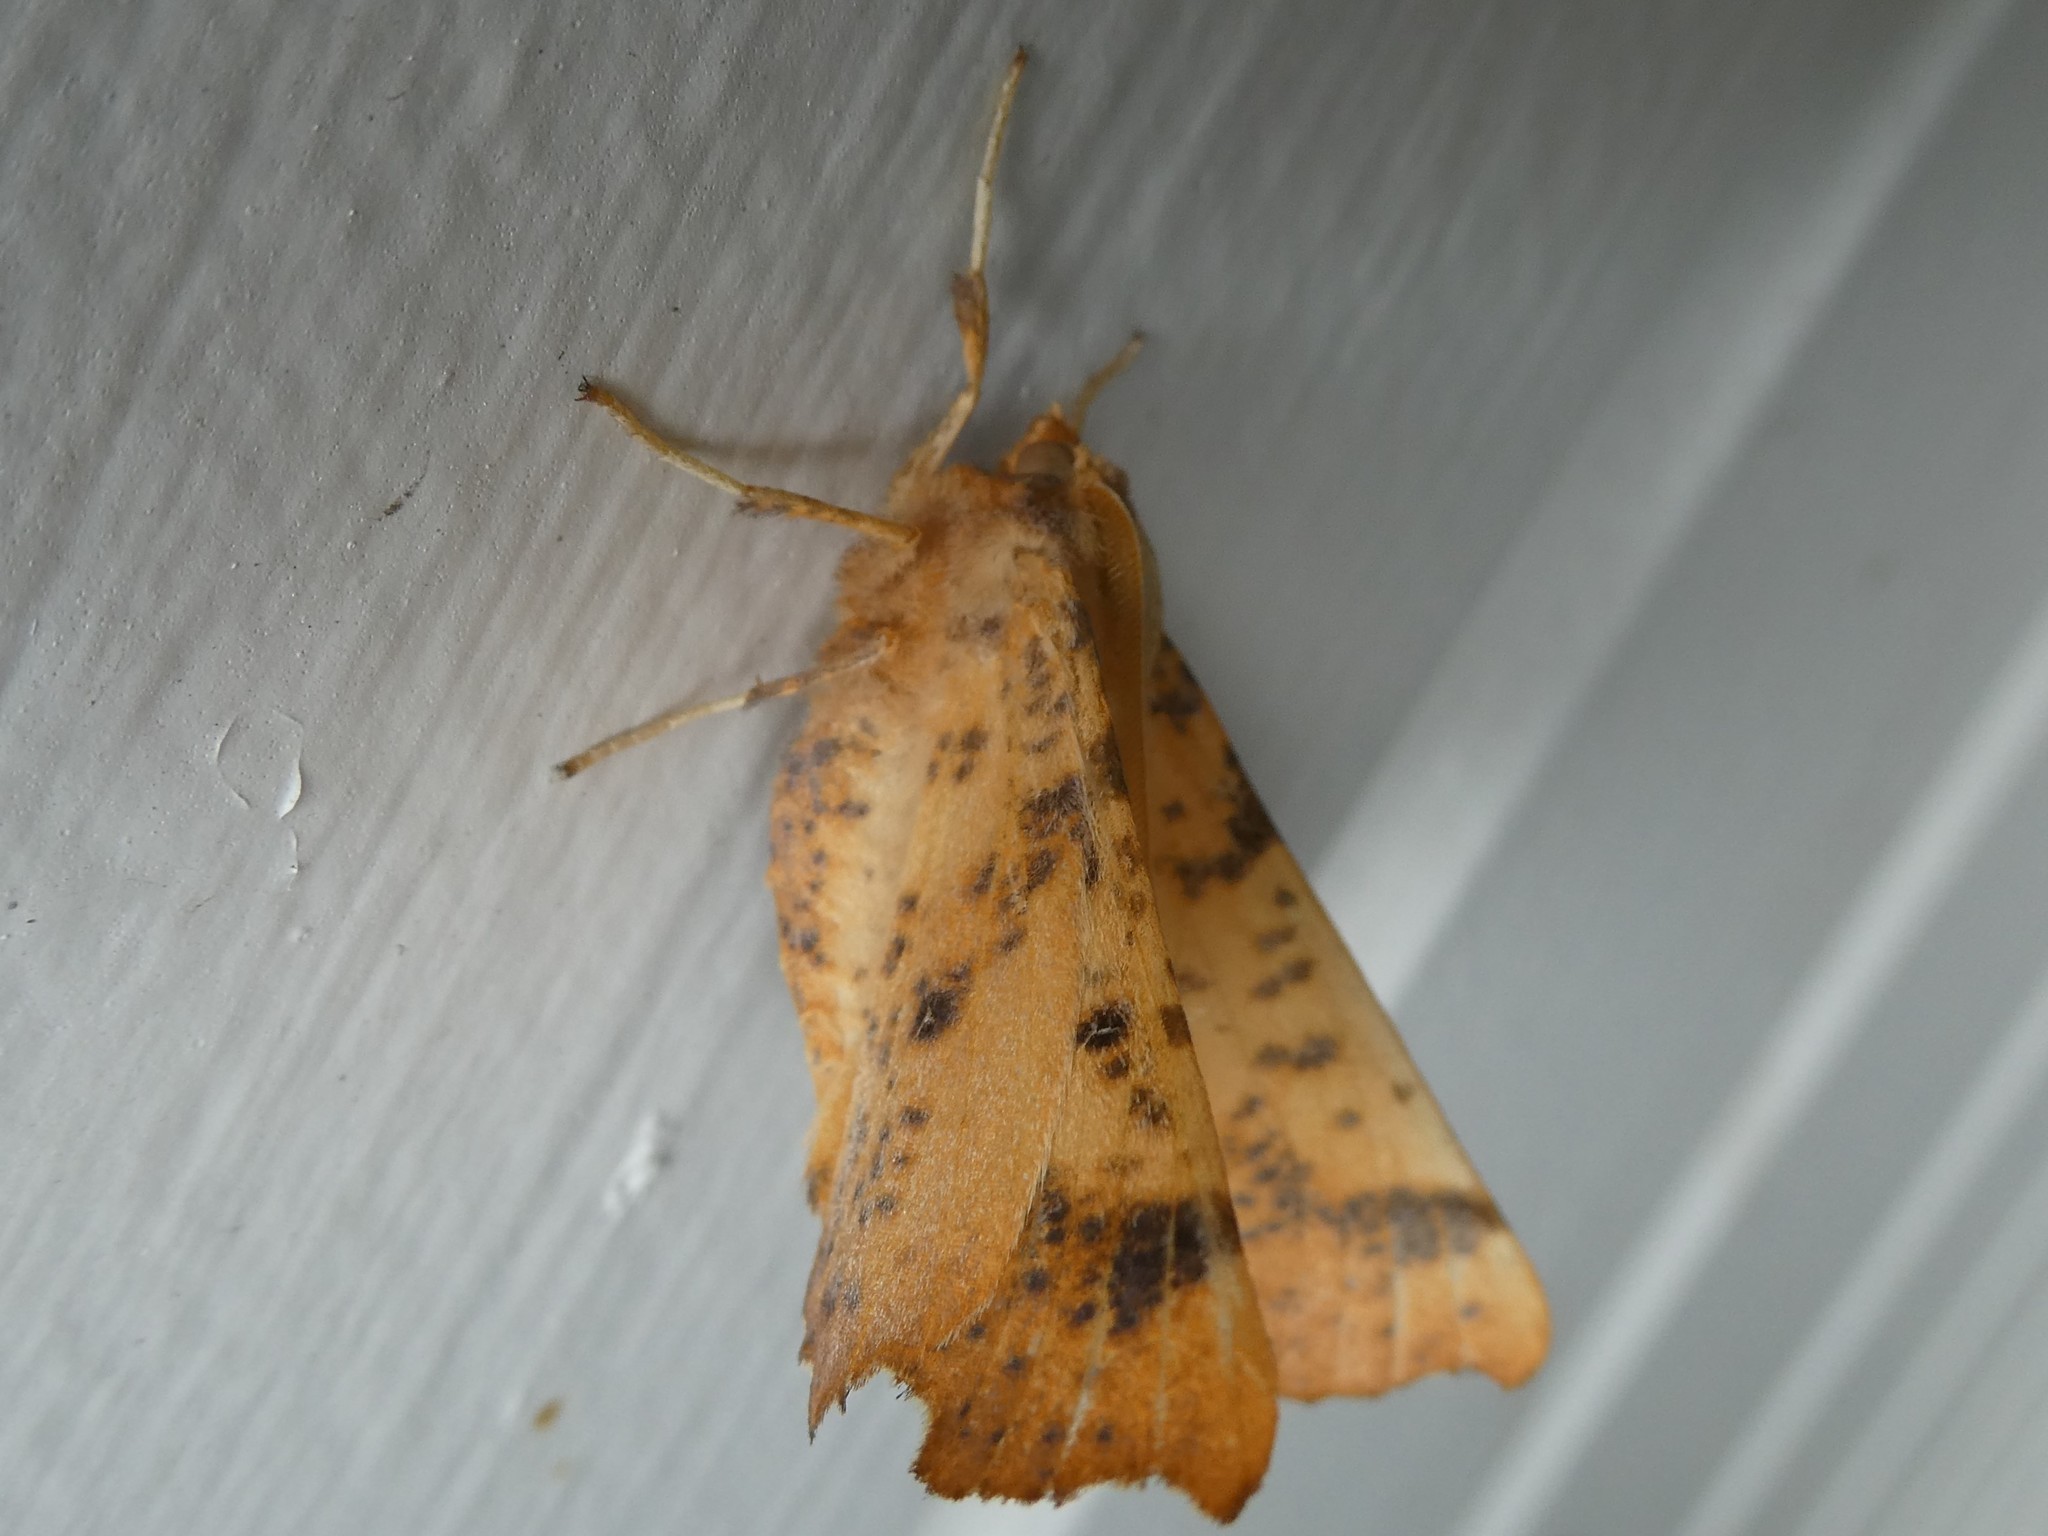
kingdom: Animalia
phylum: Arthropoda
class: Insecta
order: Lepidoptera
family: Geometridae
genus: Ennomos
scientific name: Ennomos magnaria
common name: Maple spanworm
